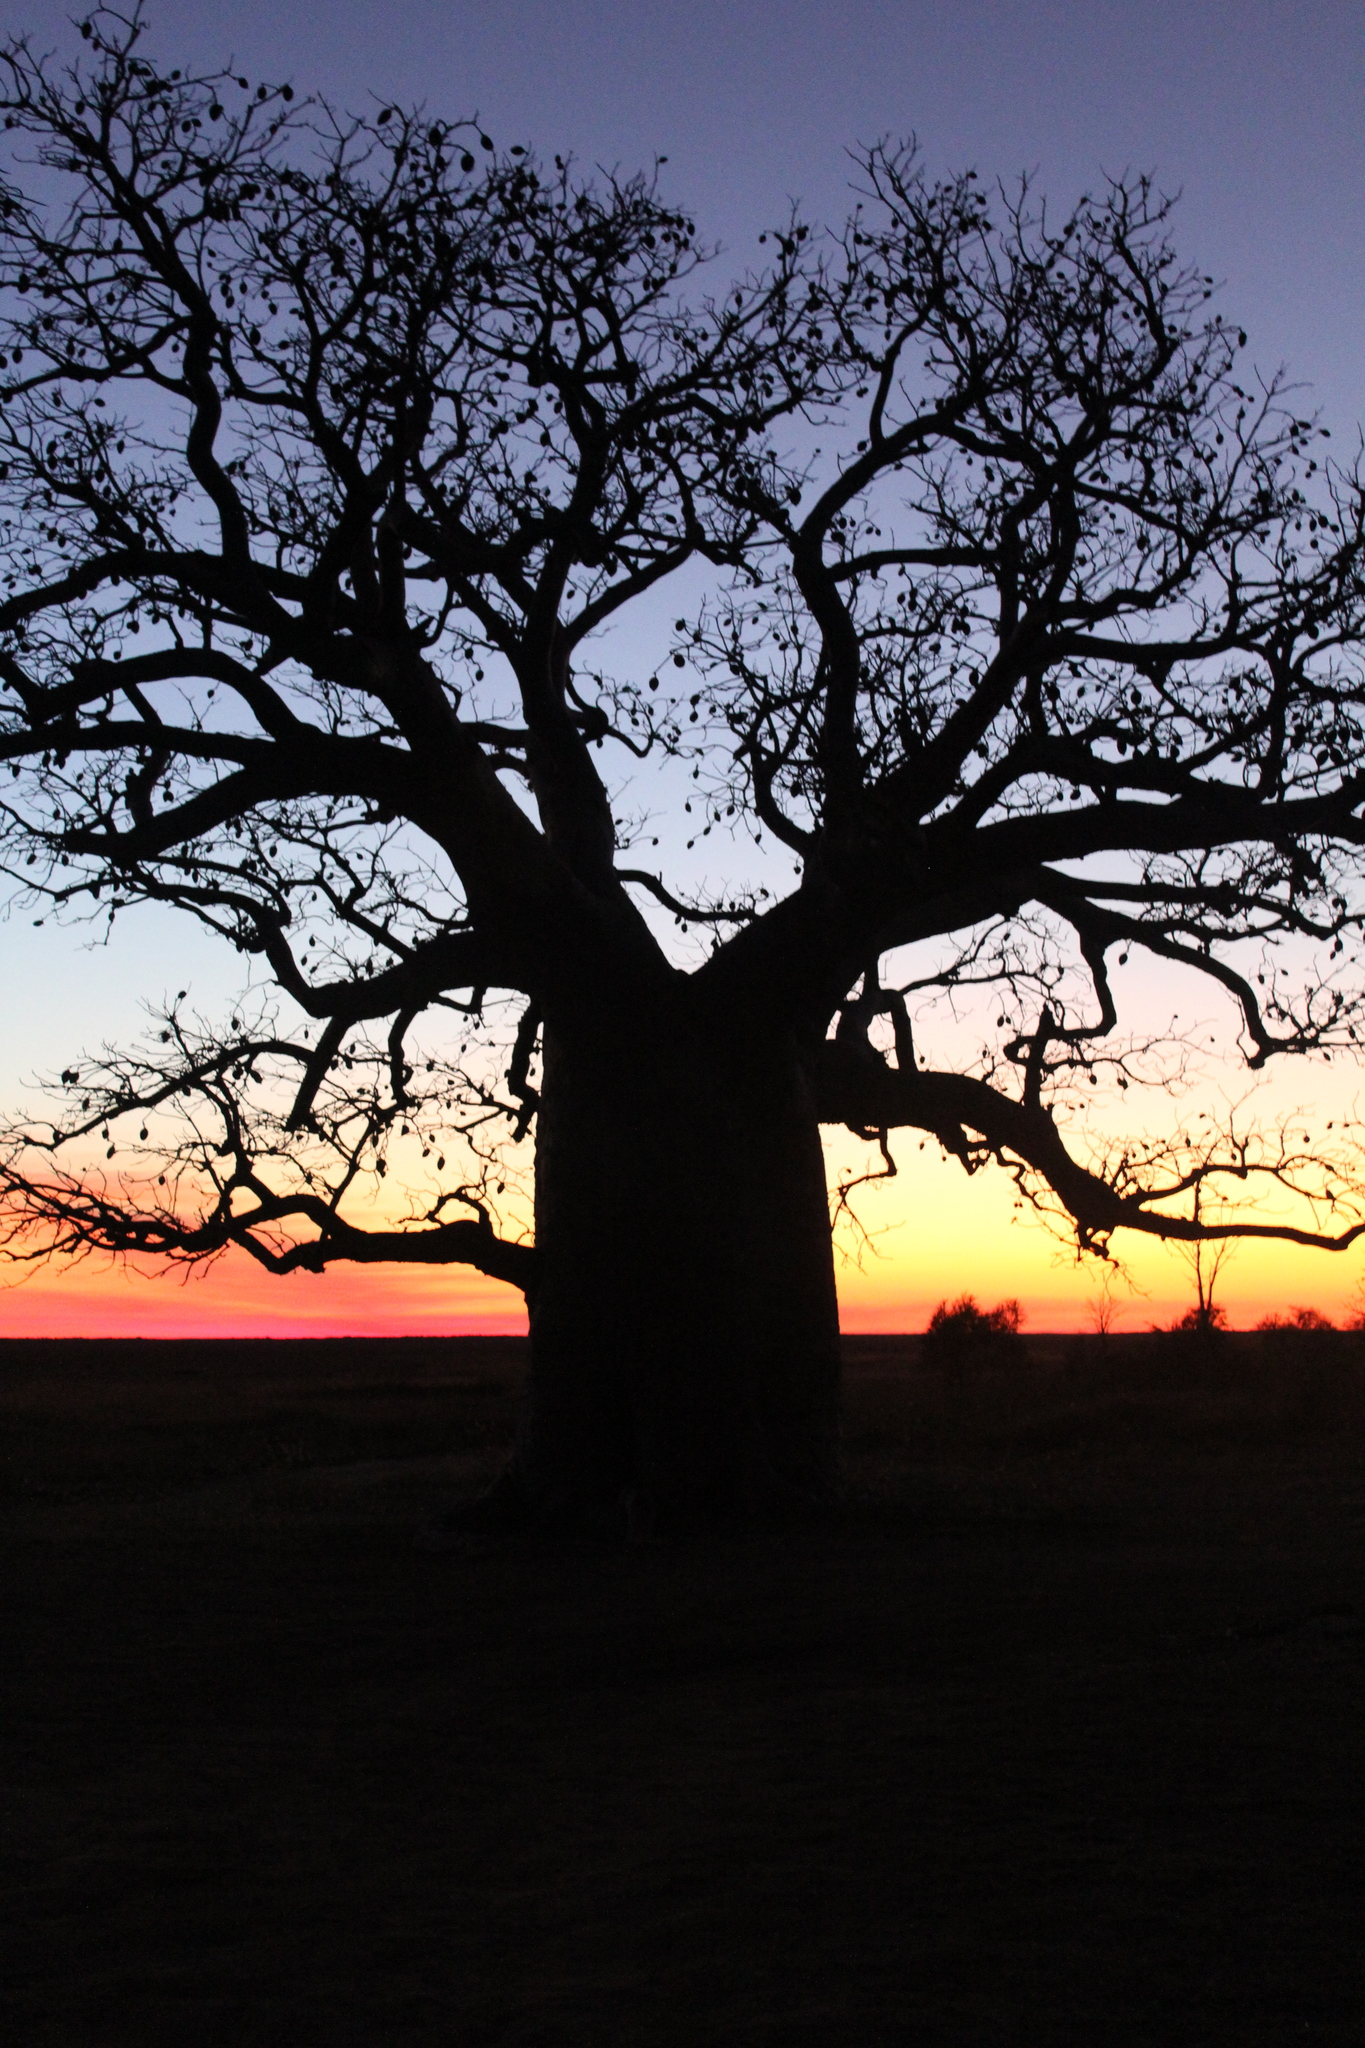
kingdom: Plantae
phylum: Tracheophyta
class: Magnoliopsida
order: Malvales
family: Malvaceae
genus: Adansonia
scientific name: Adansonia gregorii
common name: Australian baobab
